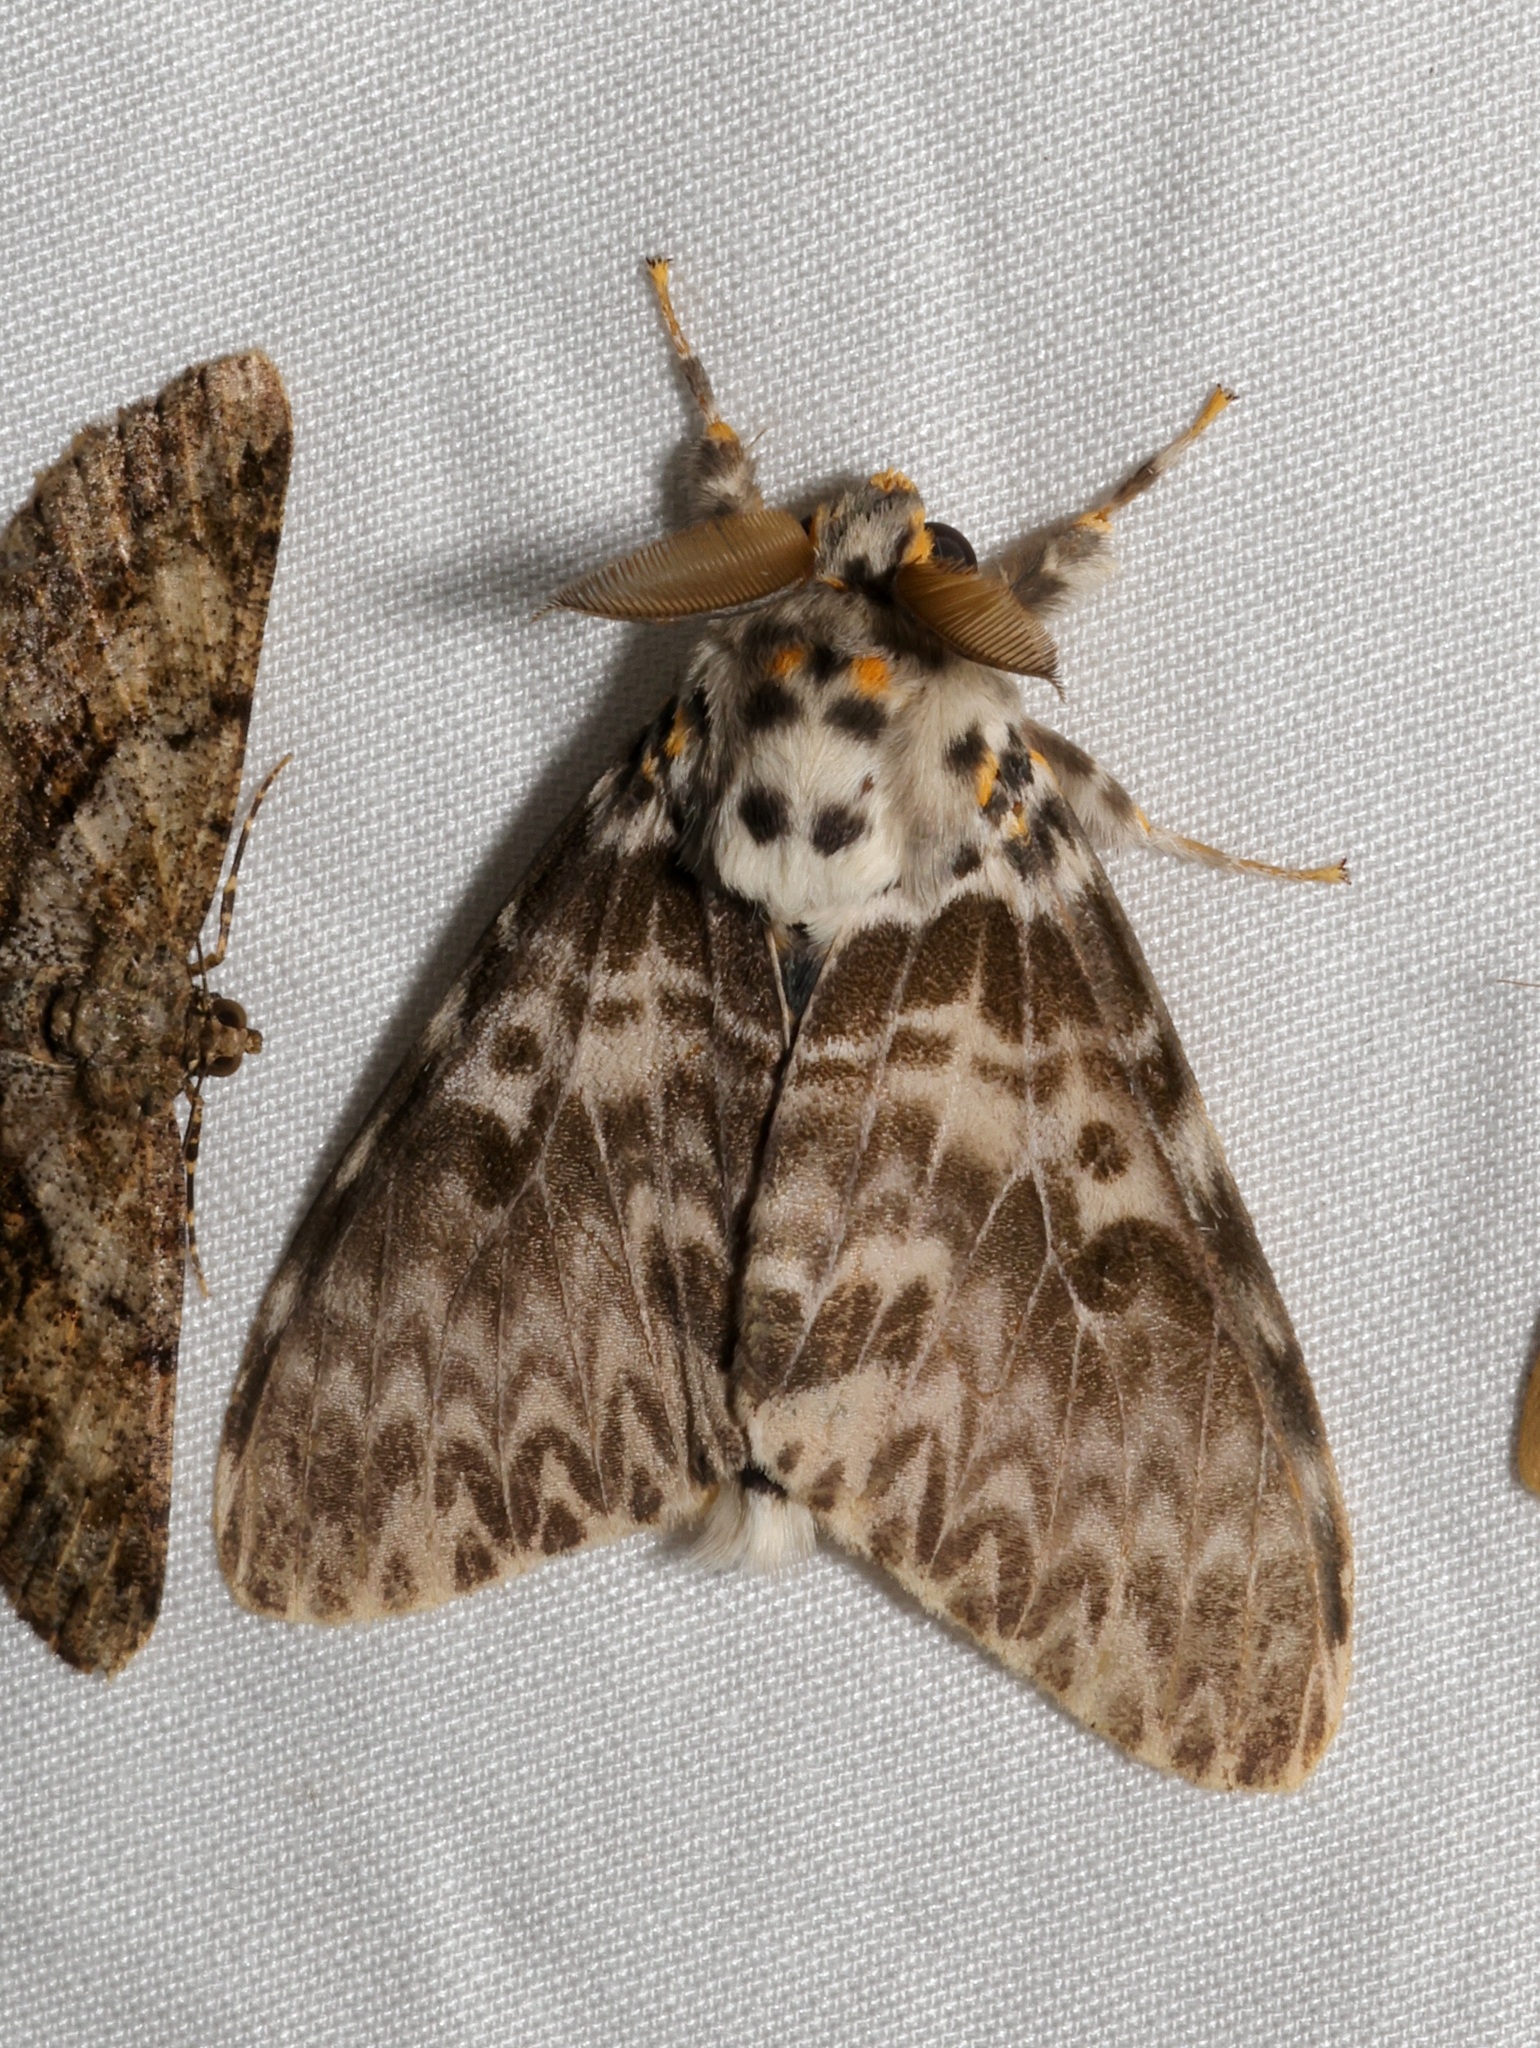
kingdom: Animalia
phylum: Arthropoda
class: Insecta
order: Lepidoptera
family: Erebidae
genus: Lymantria
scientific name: Lymantria mathura
